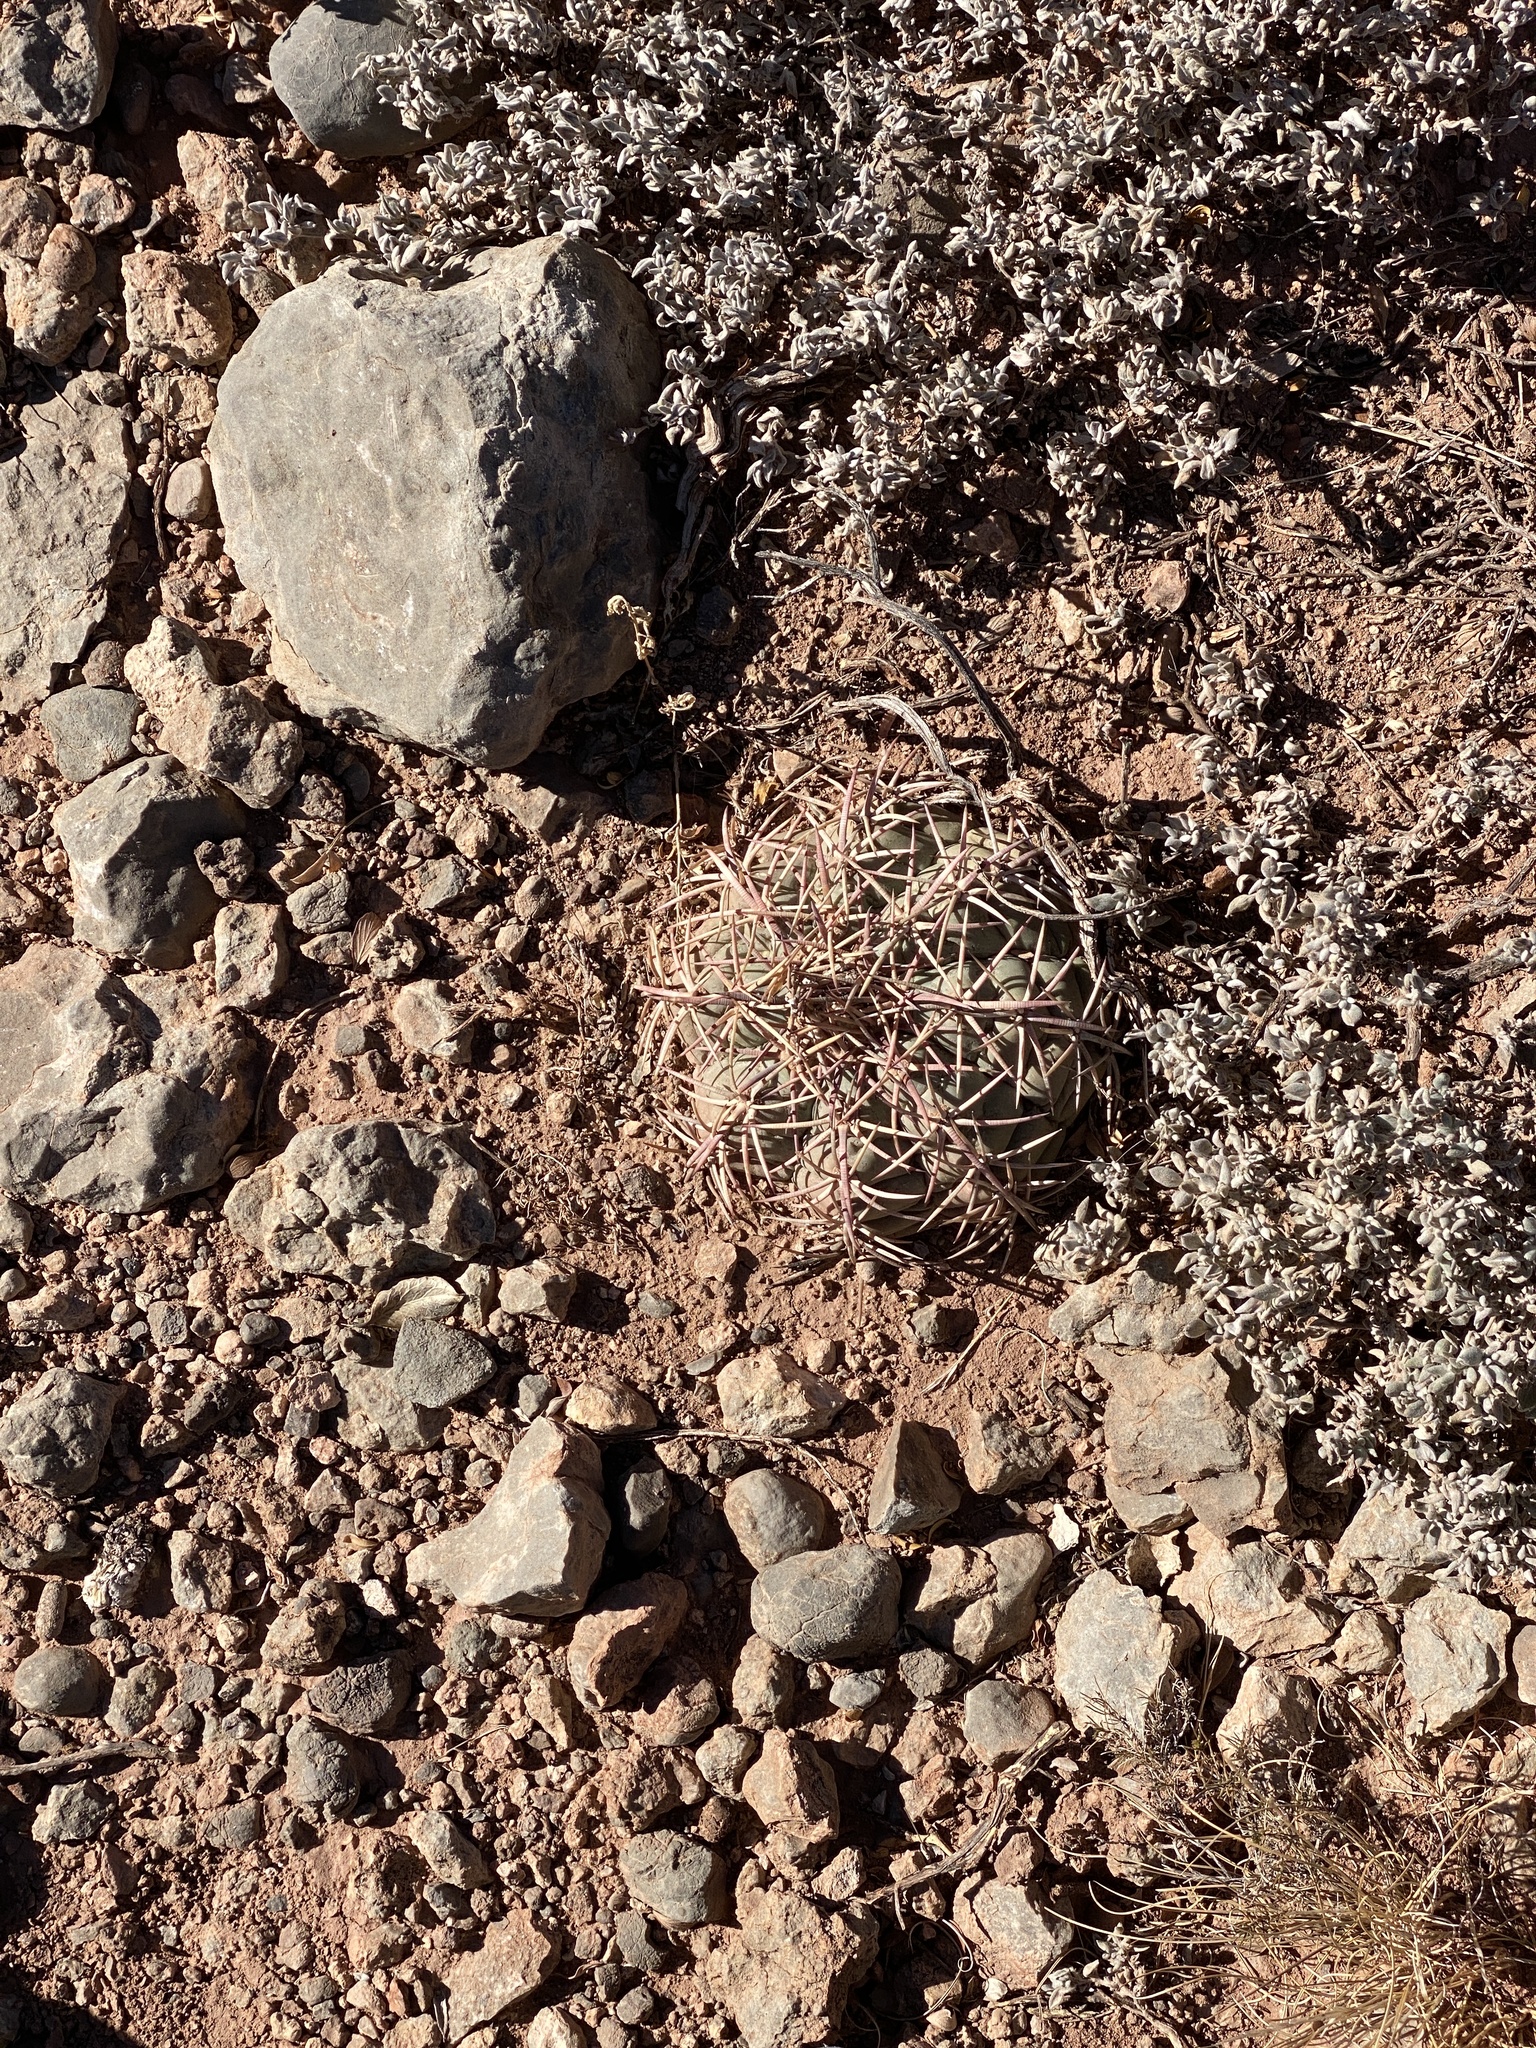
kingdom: Plantae
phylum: Tracheophyta
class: Magnoliopsida
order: Caryophyllales
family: Cactaceae
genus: Echinocactus
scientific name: Echinocactus horizonthalonius
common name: Devilshead
